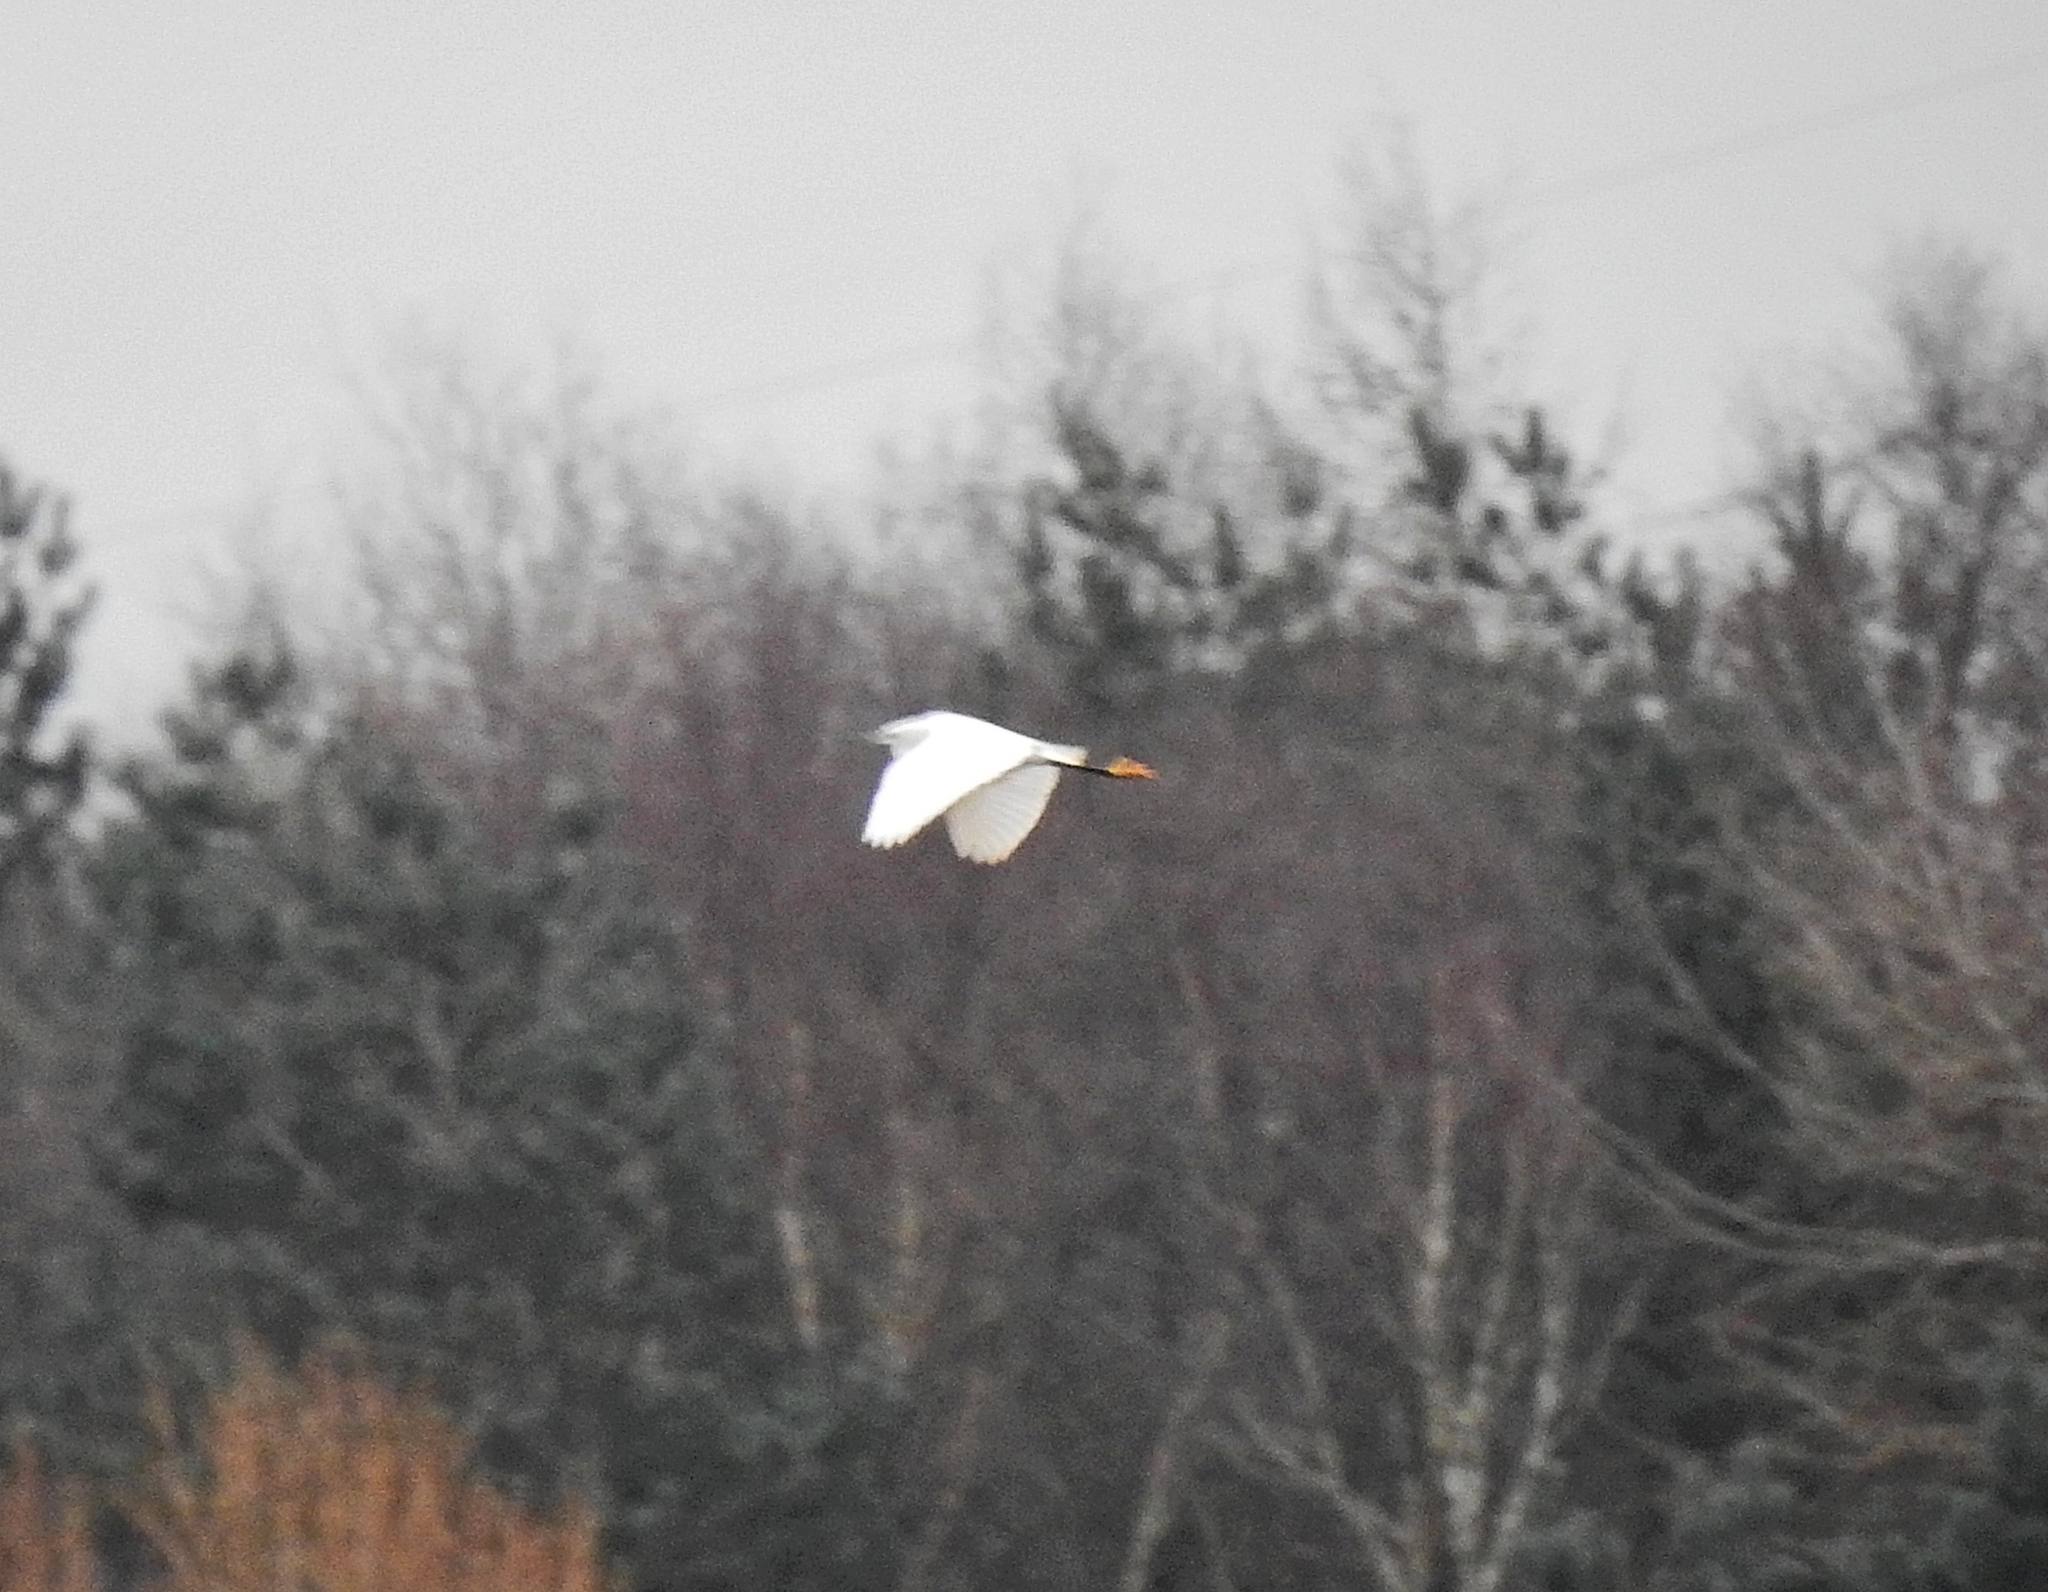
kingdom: Animalia
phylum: Chordata
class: Aves
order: Pelecaniformes
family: Ardeidae
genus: Egretta
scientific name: Egretta garzetta
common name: Little egret
